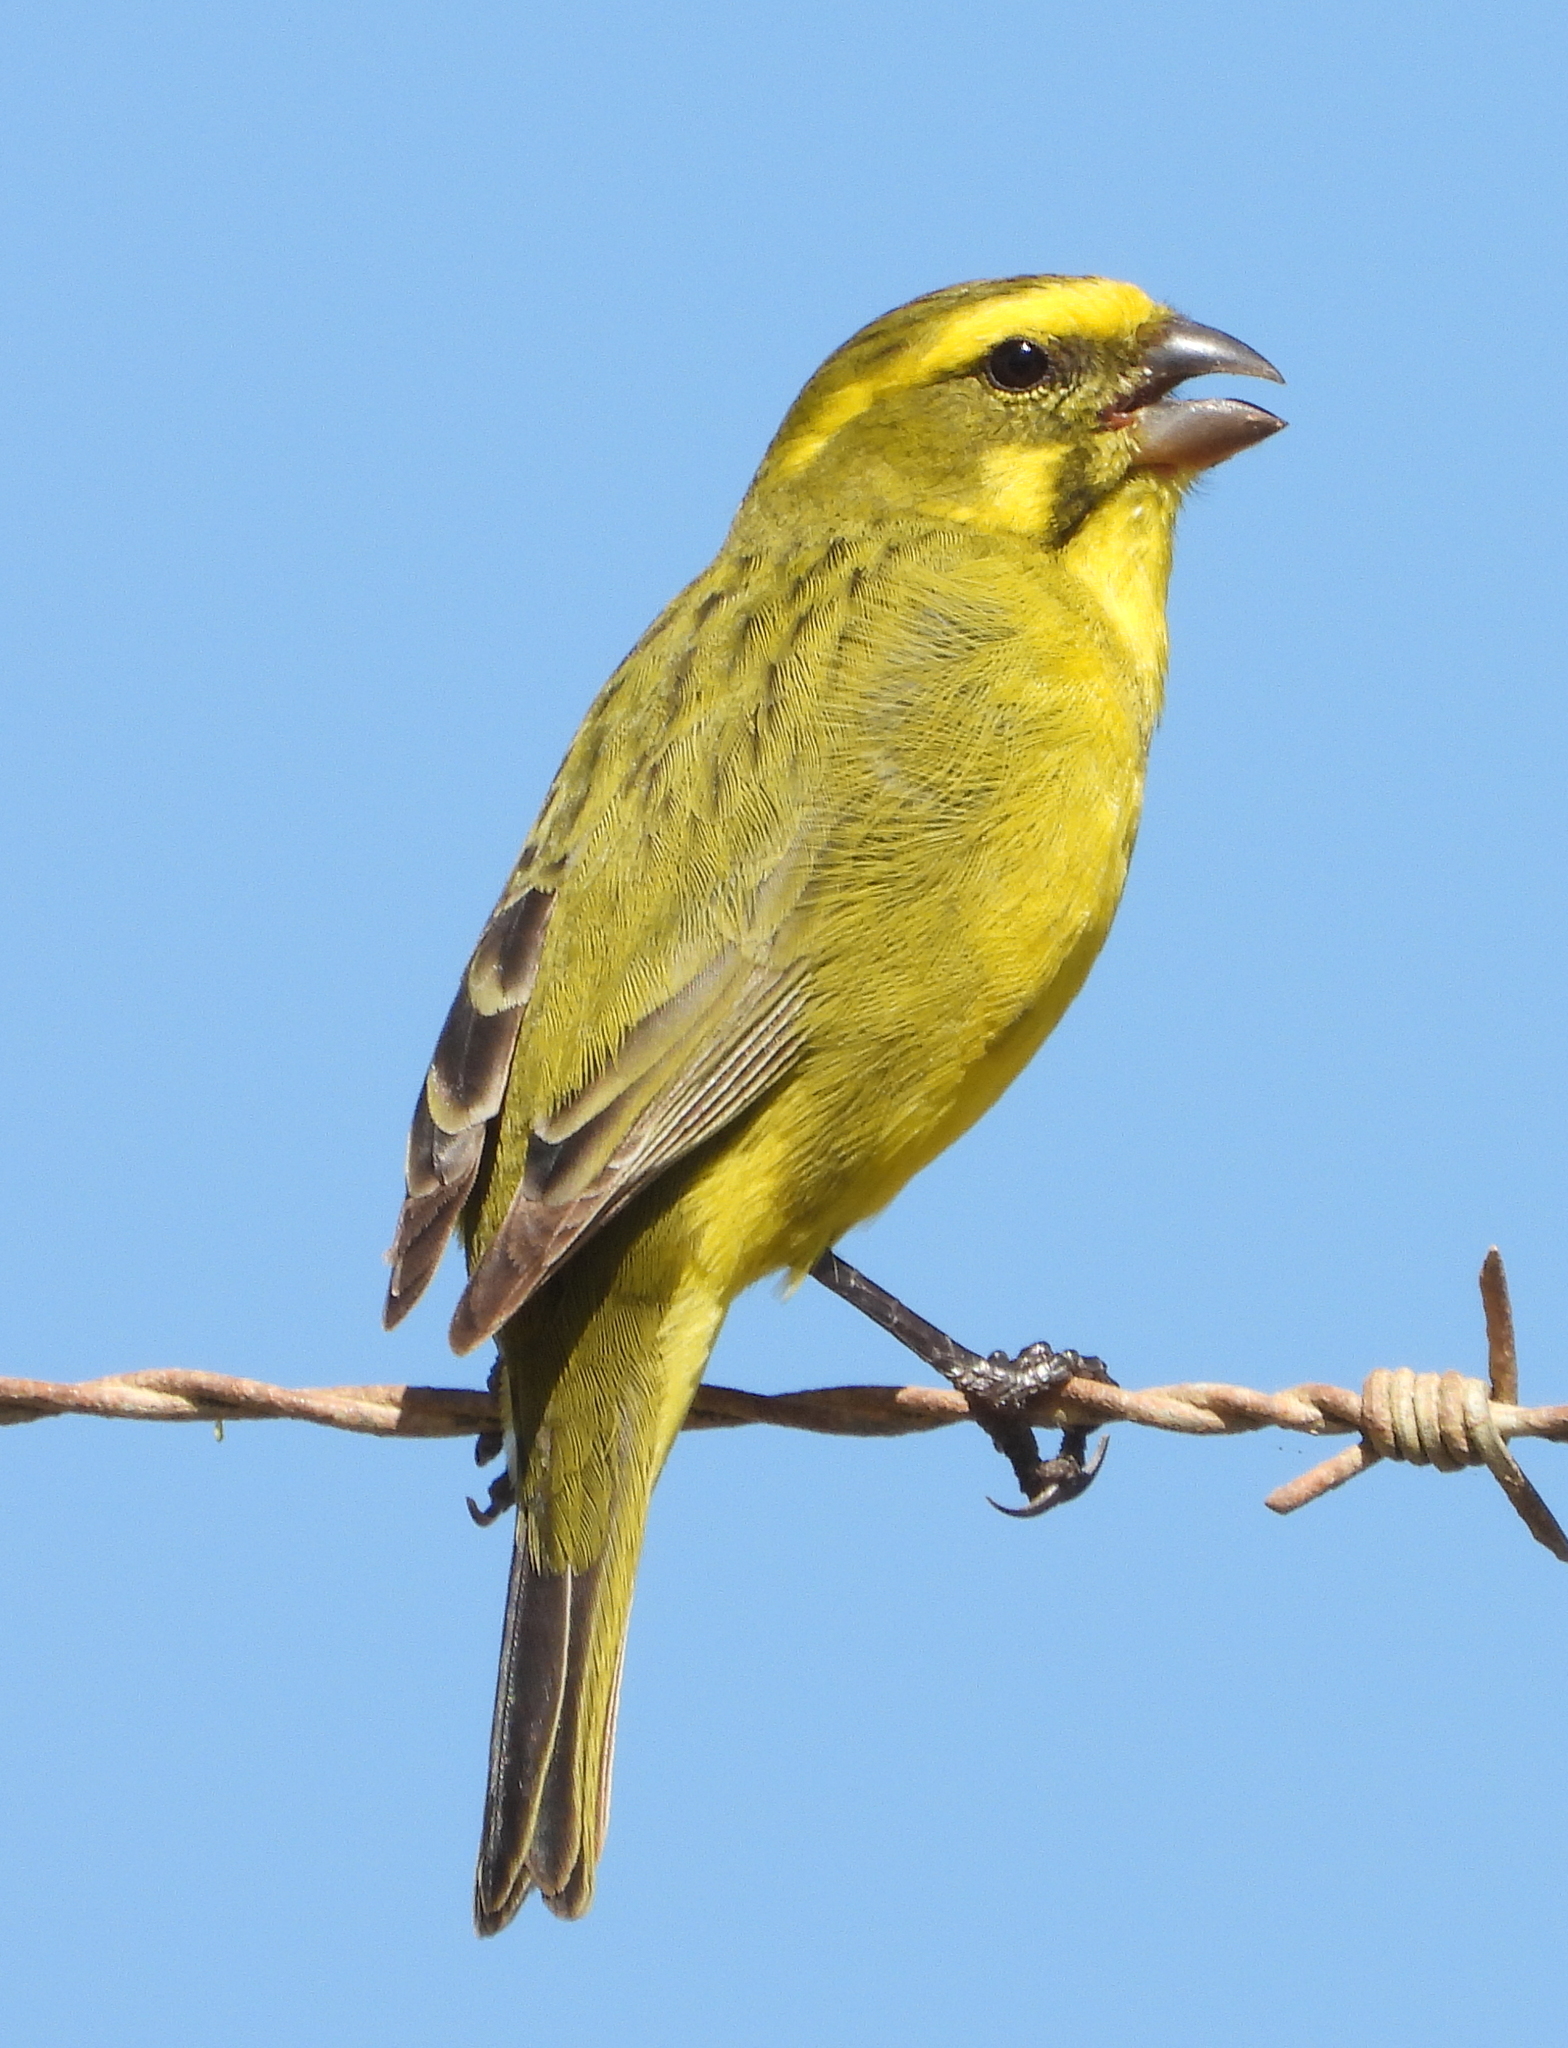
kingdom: Animalia
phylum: Chordata
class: Aves
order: Passeriformes
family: Fringillidae
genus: Crithagra
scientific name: Crithagra flaviventris
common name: Yellow canary
